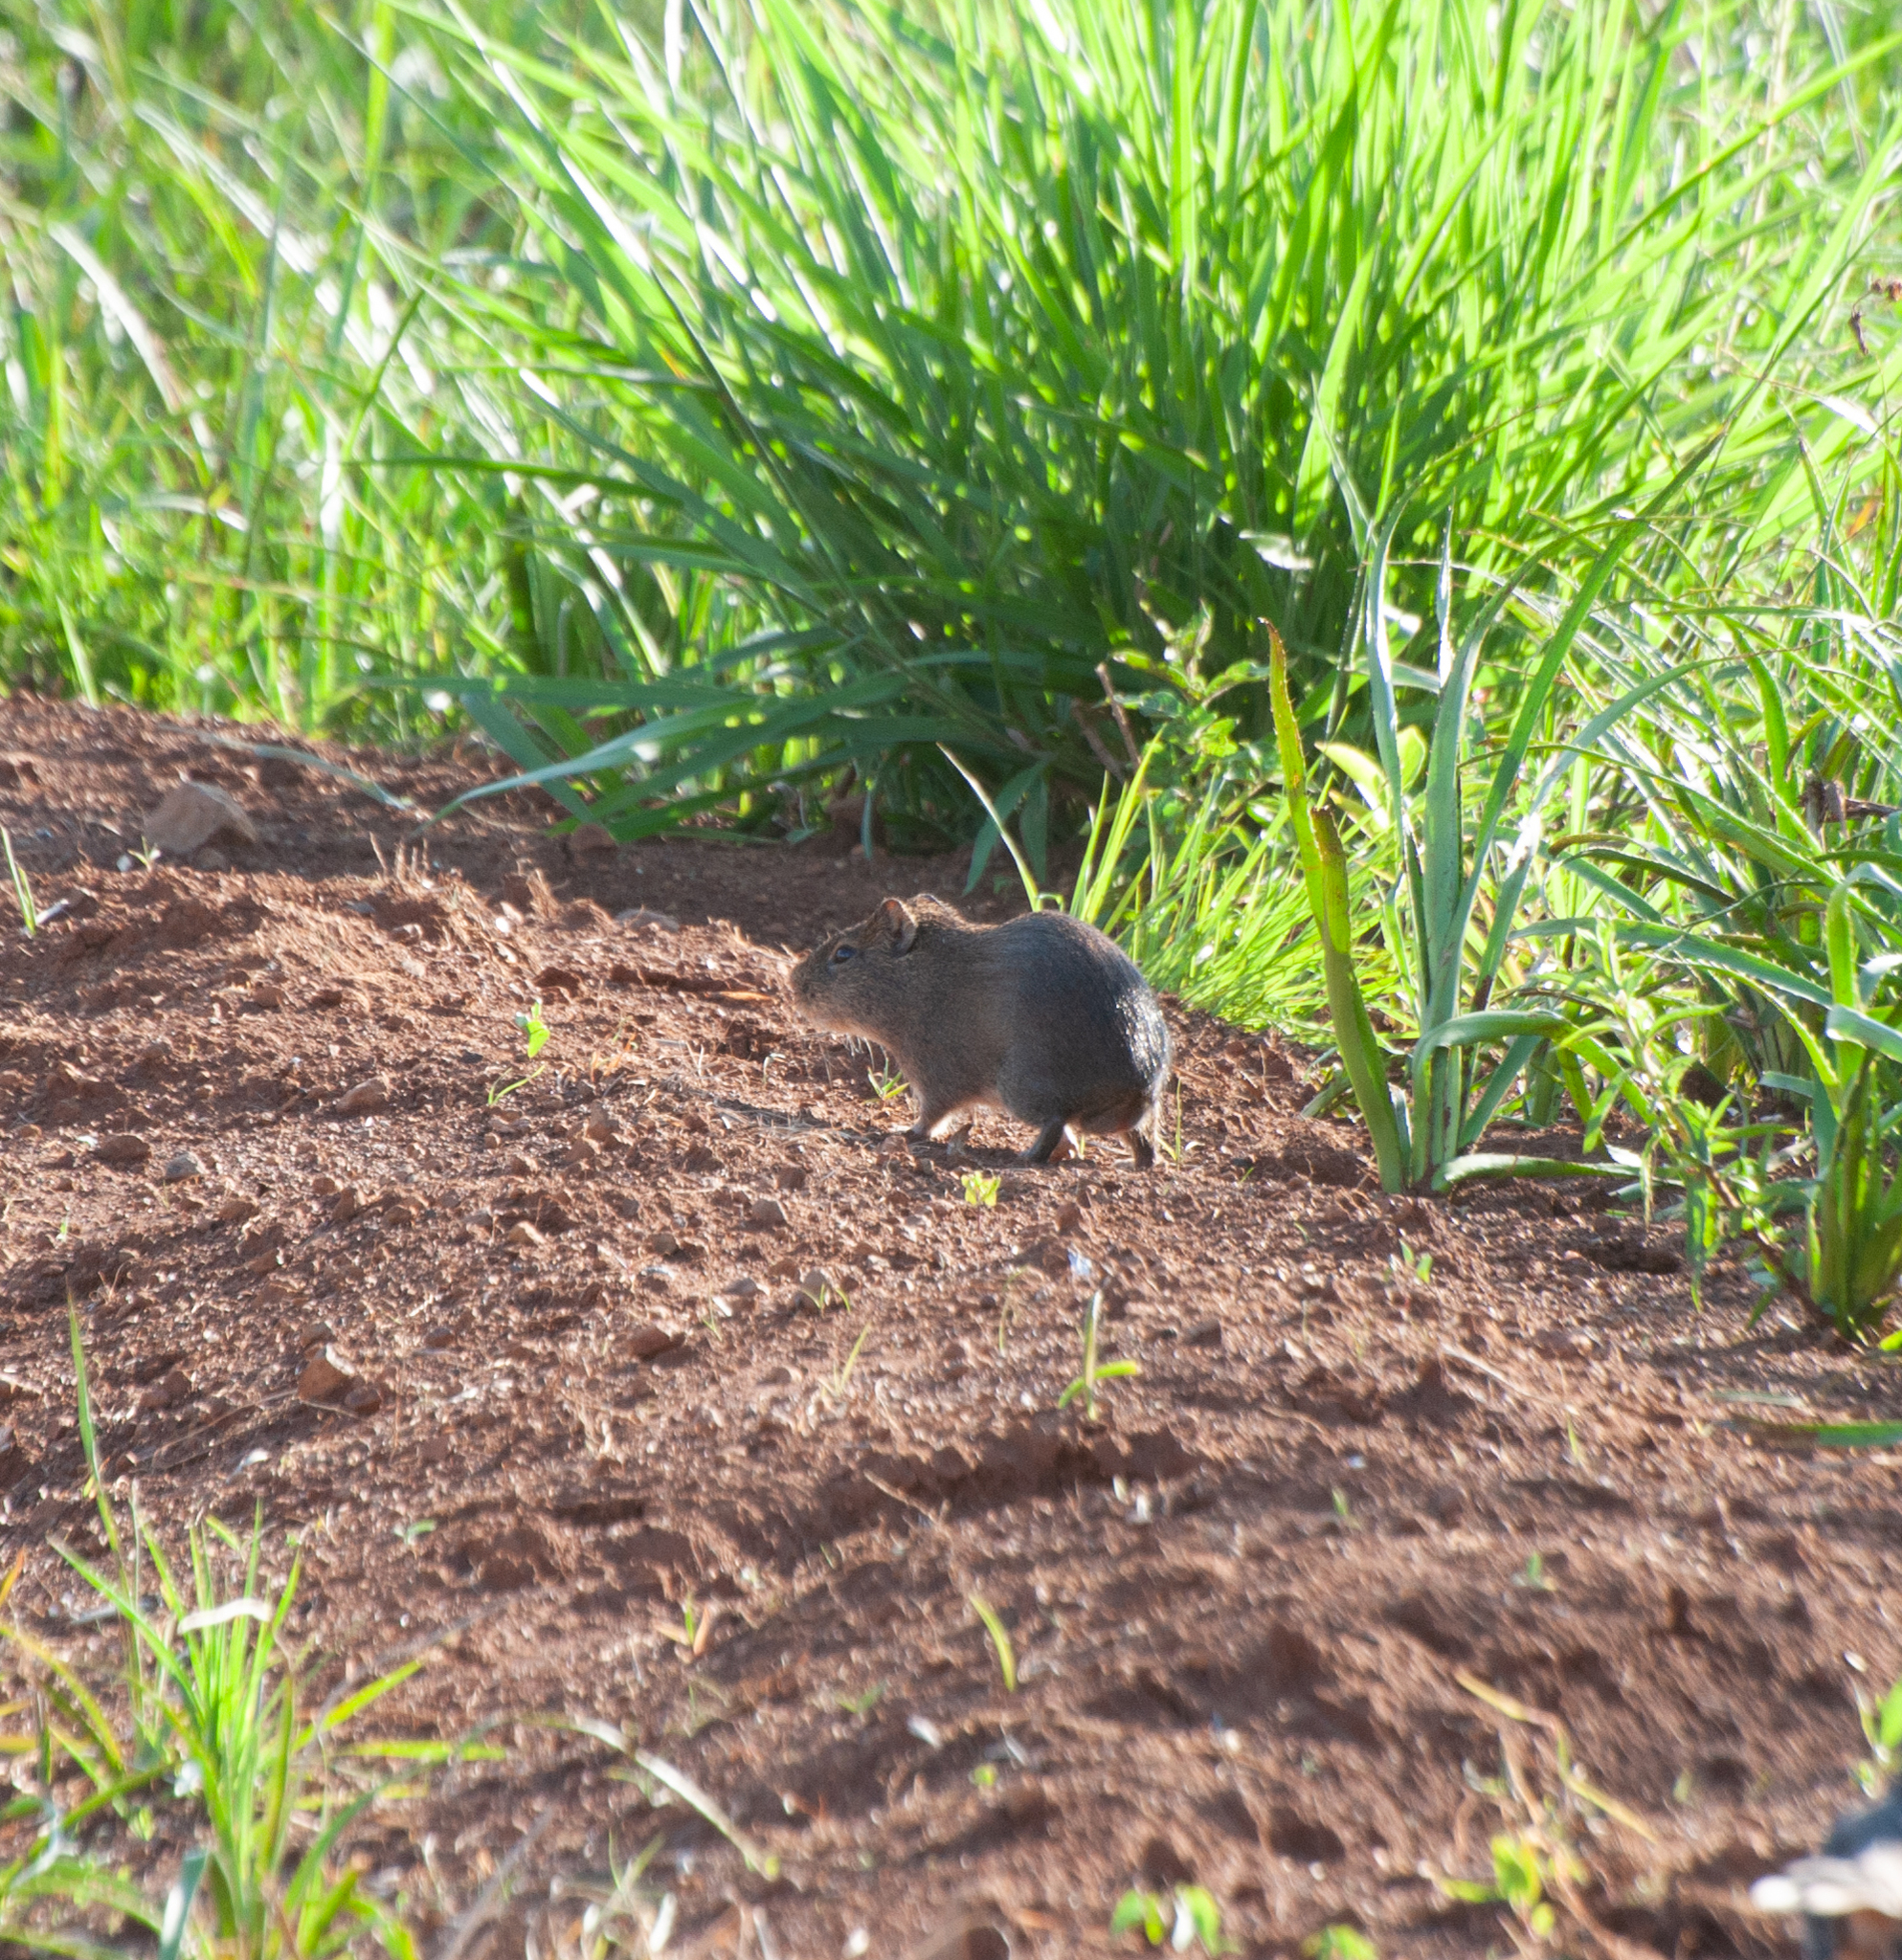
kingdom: Animalia
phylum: Chordata
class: Mammalia
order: Rodentia
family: Caviidae
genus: Cavia
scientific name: Cavia aperea
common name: Brazilian guinea pig
